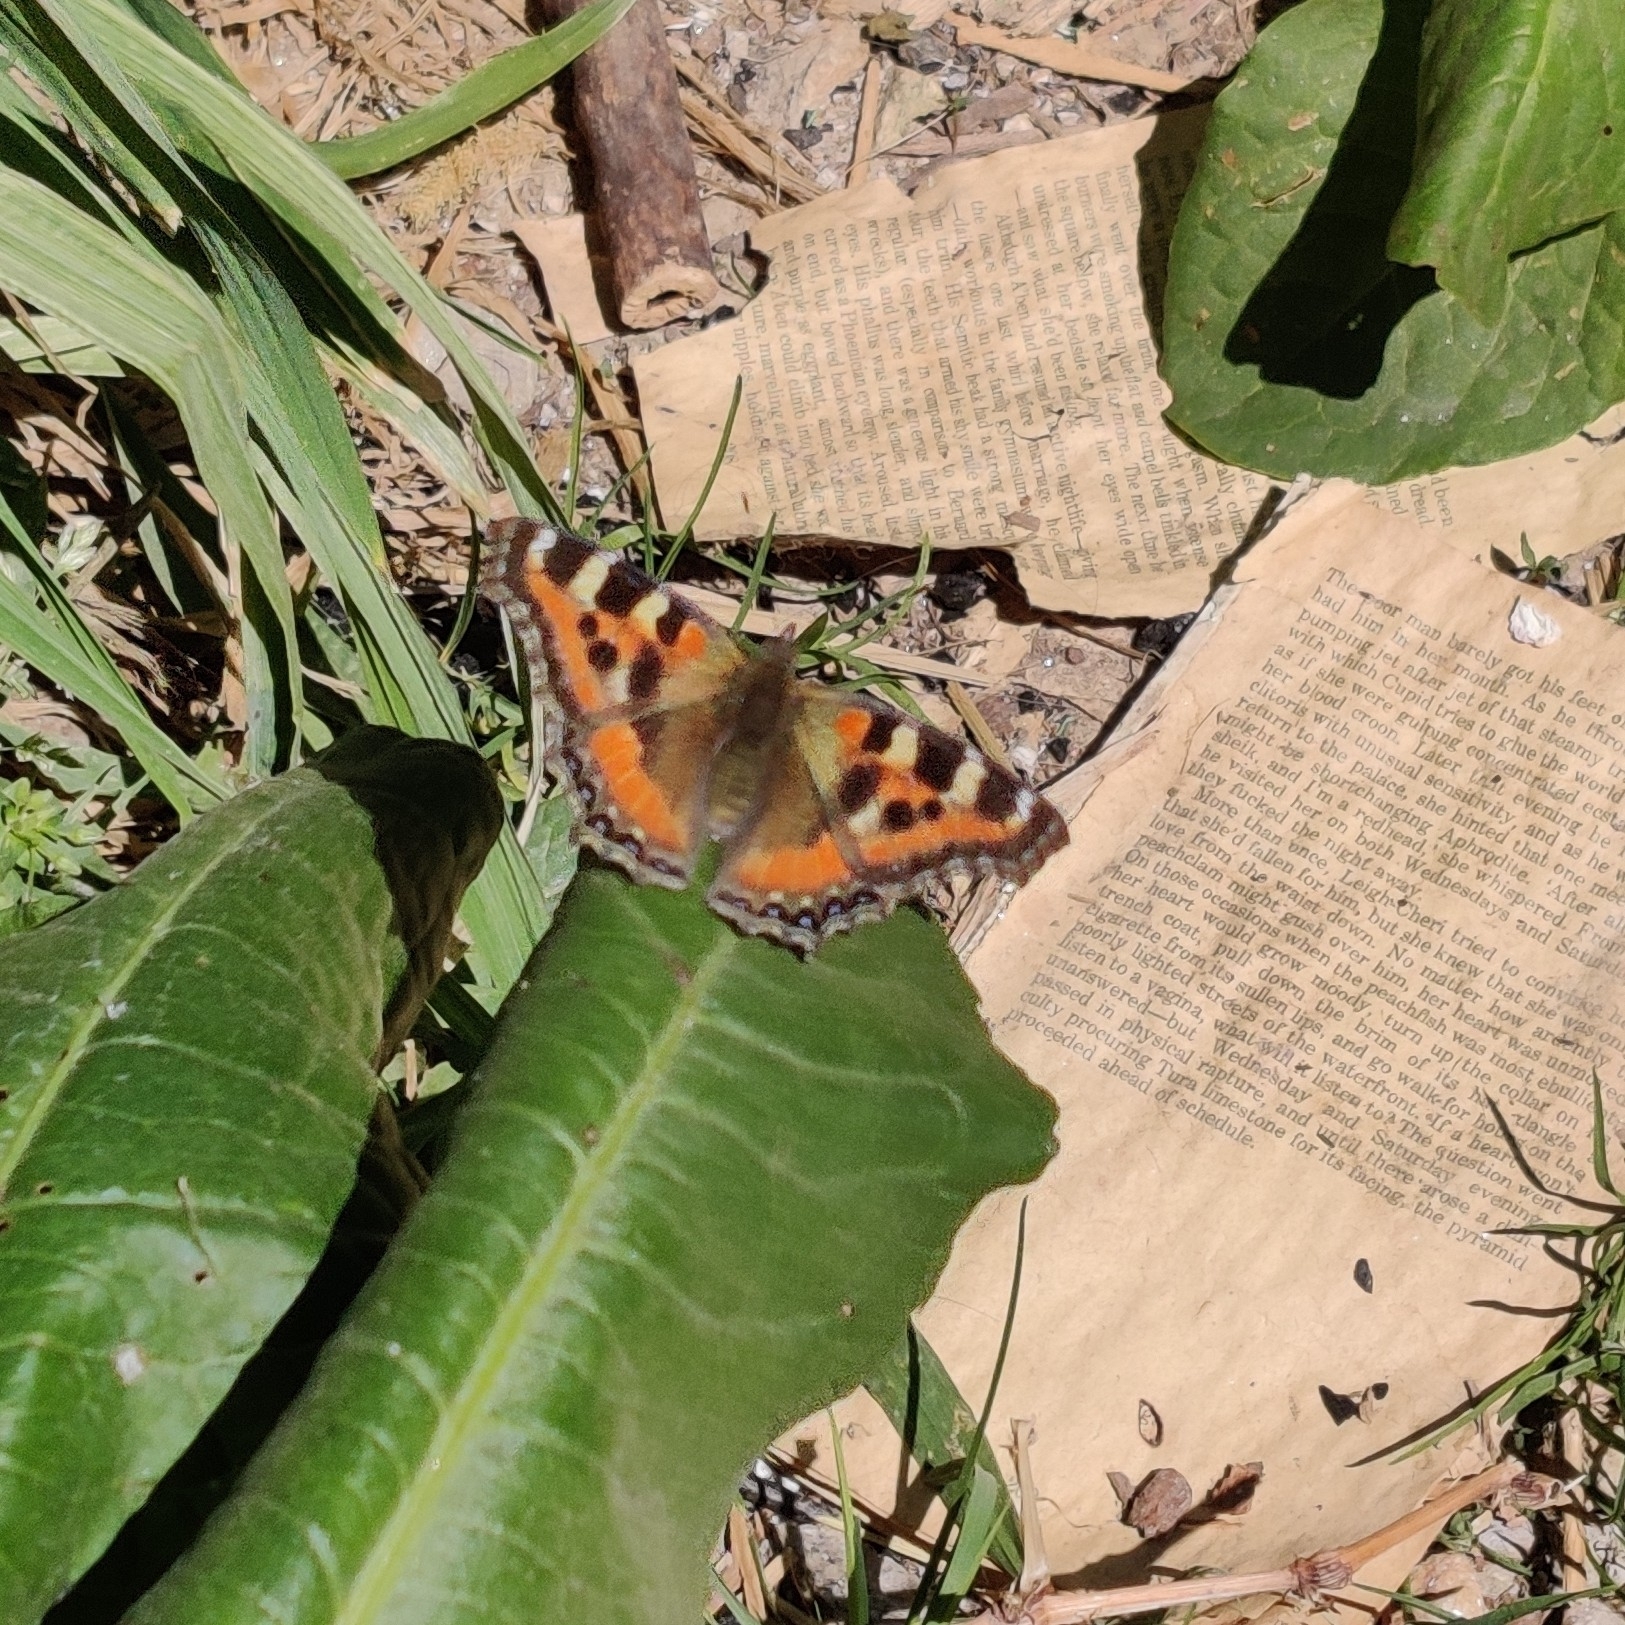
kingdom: Animalia
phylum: Arthropoda
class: Insecta
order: Lepidoptera
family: Nymphalidae
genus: Aglais
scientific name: Aglais caschmirensis
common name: Indian tortoiseshell
